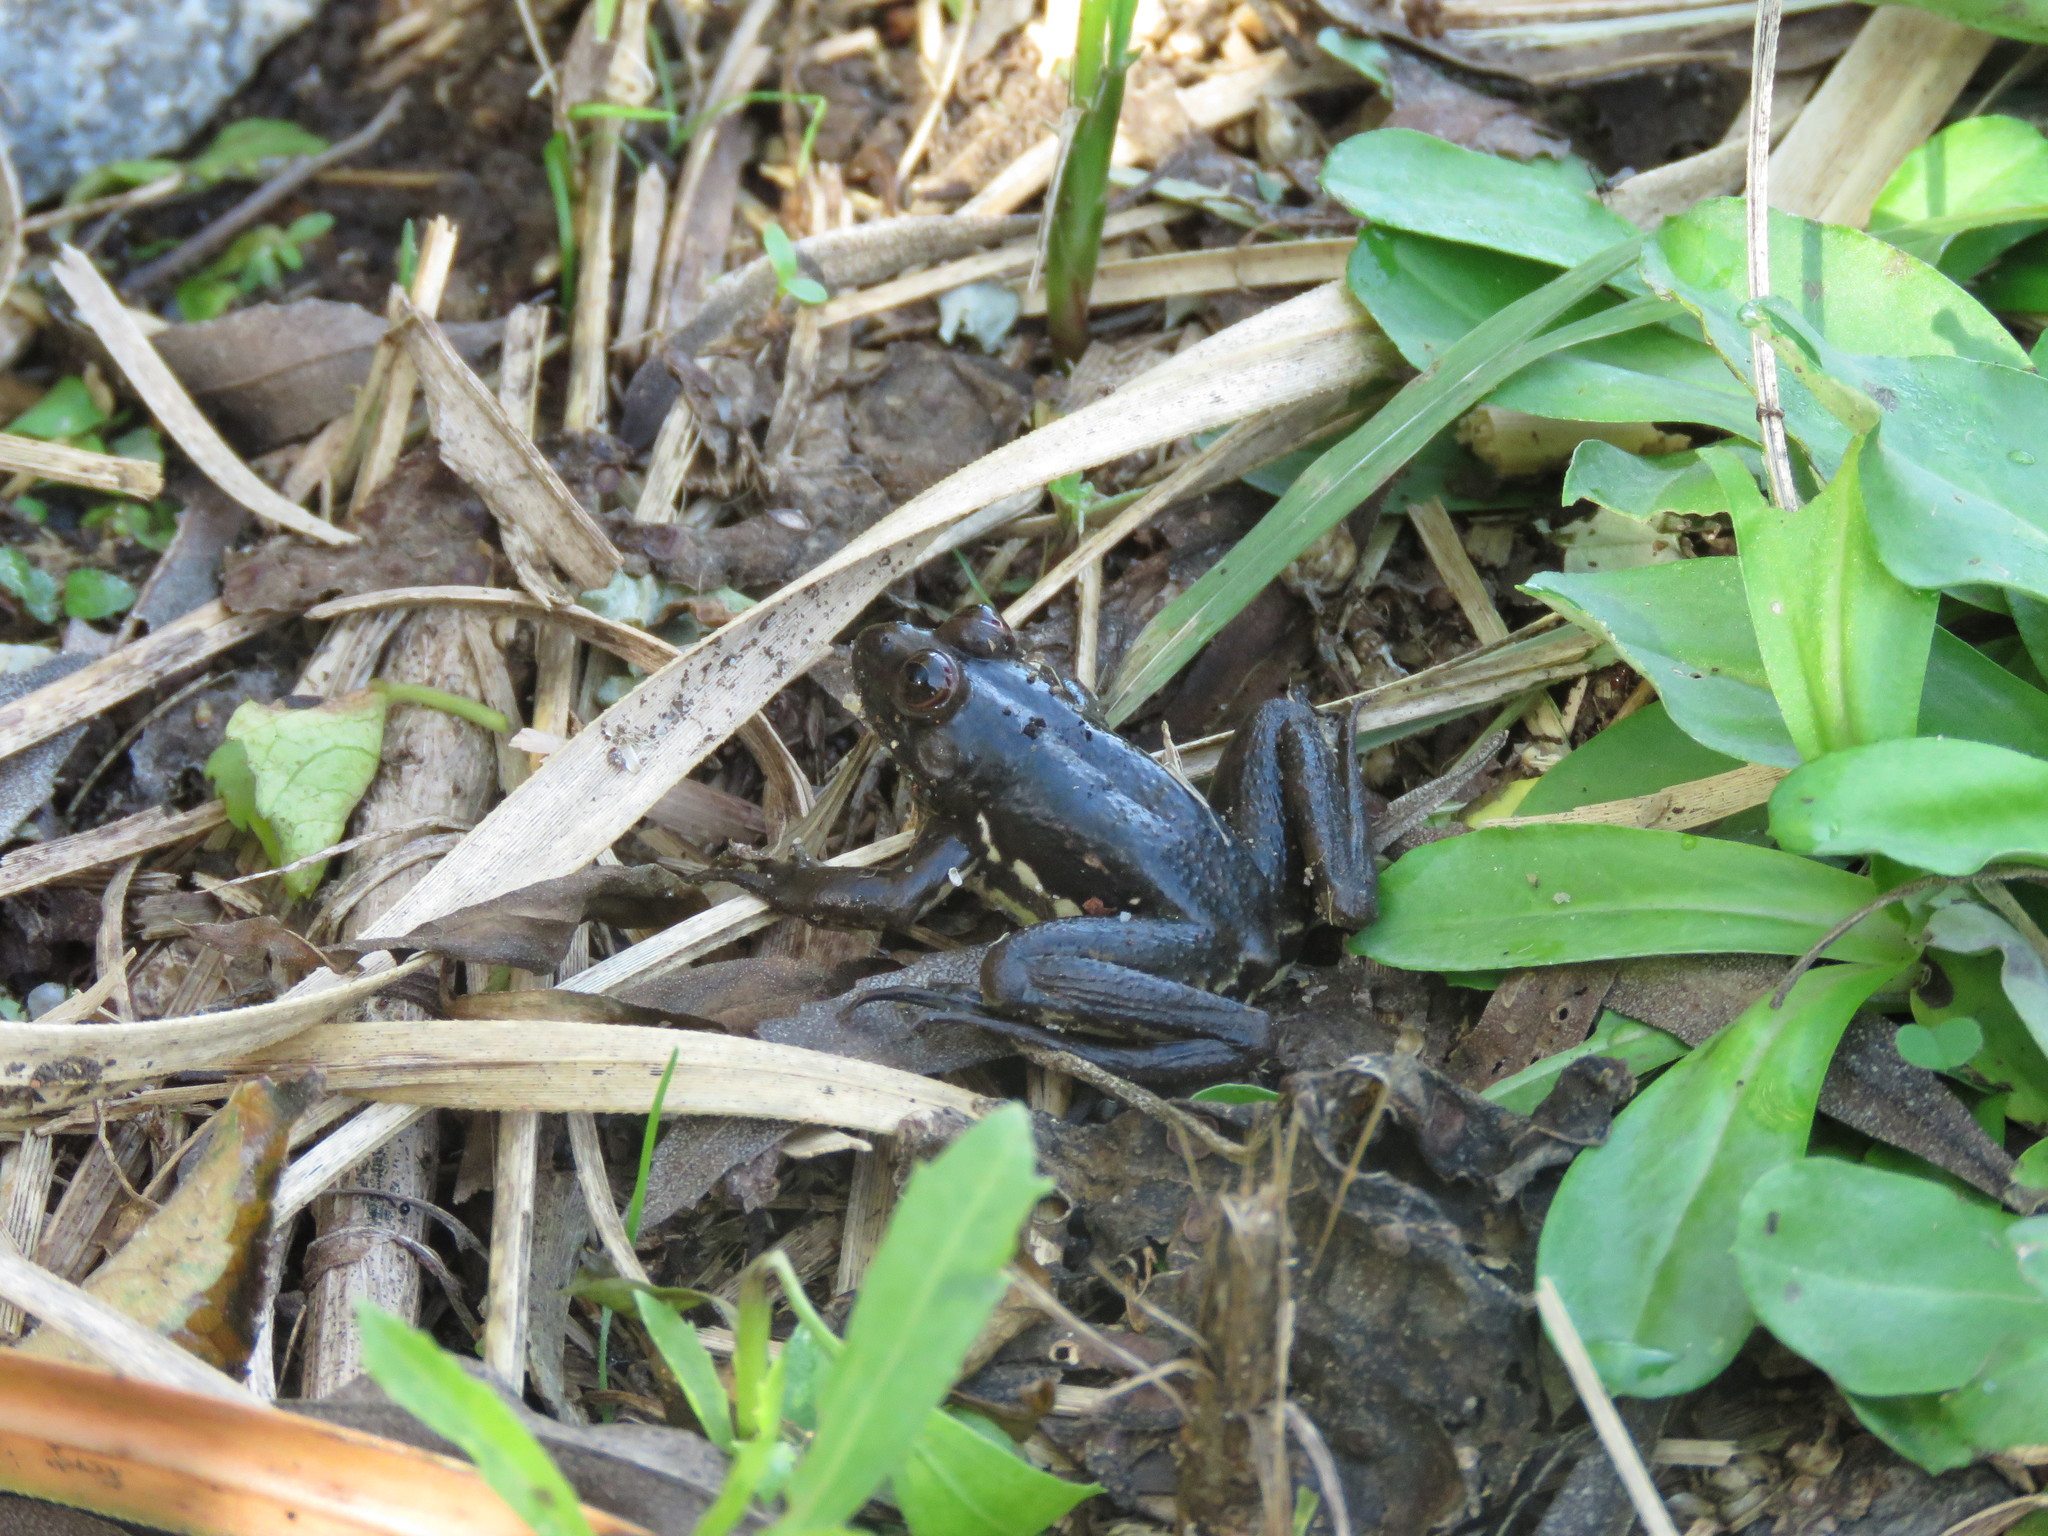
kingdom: Animalia
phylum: Chordata
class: Amphibia
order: Anura
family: Hylidae
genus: Pseudis
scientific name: Pseudis minuta
